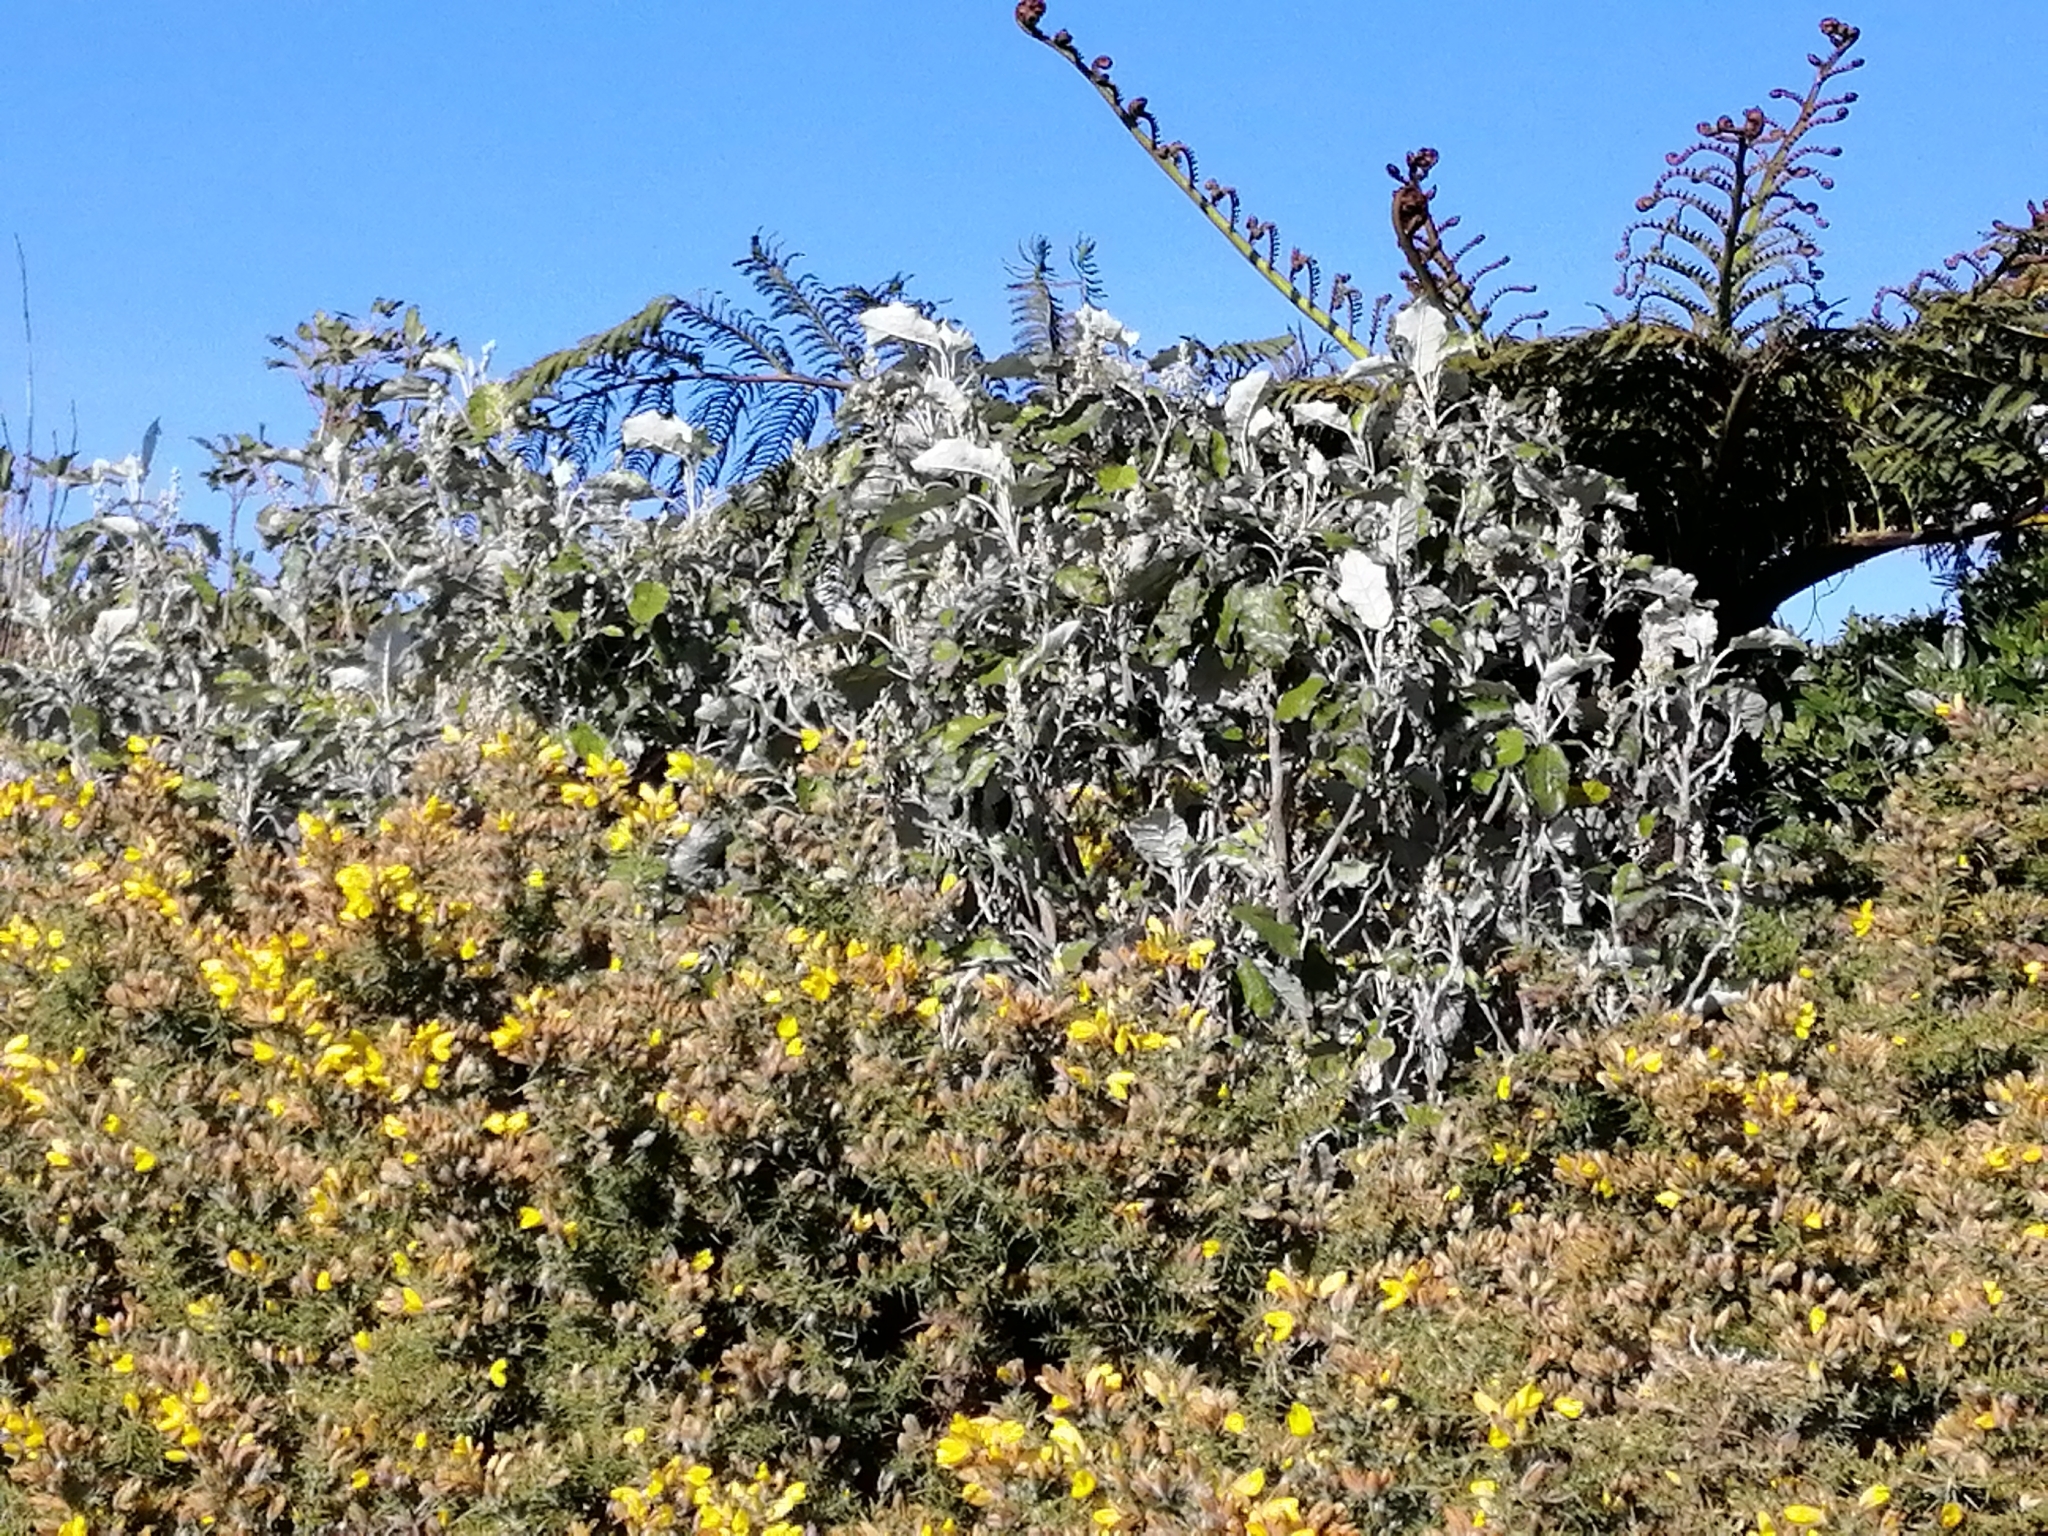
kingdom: Plantae
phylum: Tracheophyta
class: Magnoliopsida
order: Asterales
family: Asteraceae
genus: Brachyglottis
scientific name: Brachyglottis repanda
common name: Hedge ragwort
